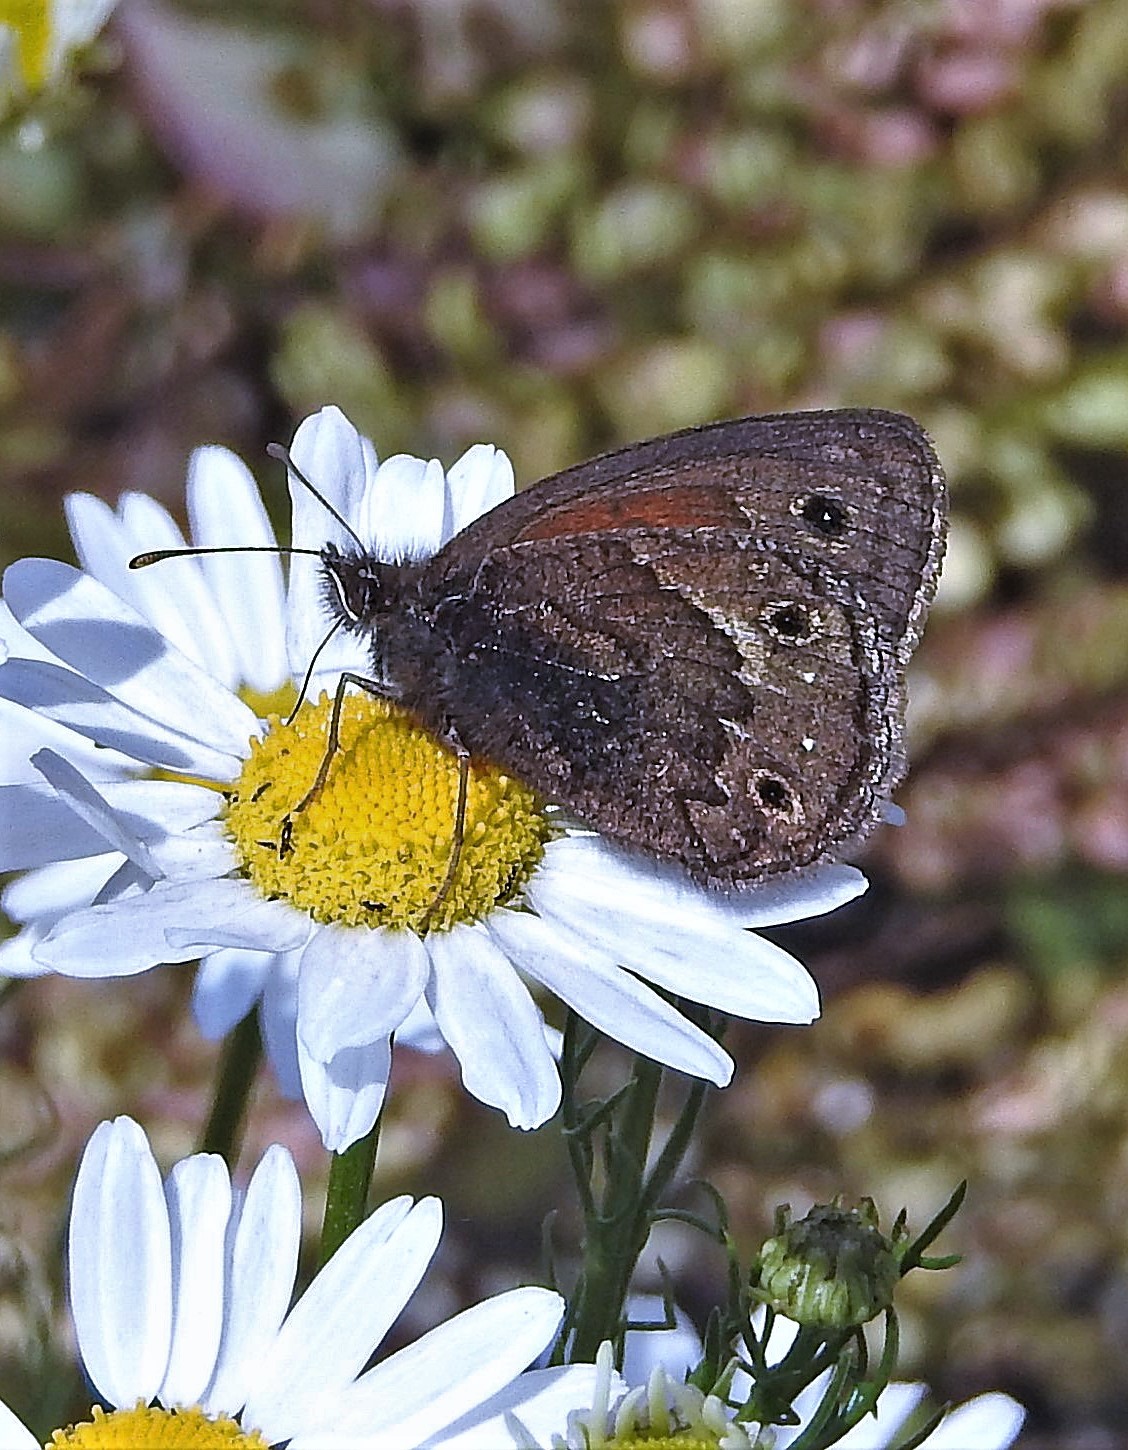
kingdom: Animalia
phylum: Arthropoda
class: Insecta
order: Lepidoptera
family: Nymphalidae
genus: Cosmosatyrus
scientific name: Cosmosatyrus leptoneuroides
